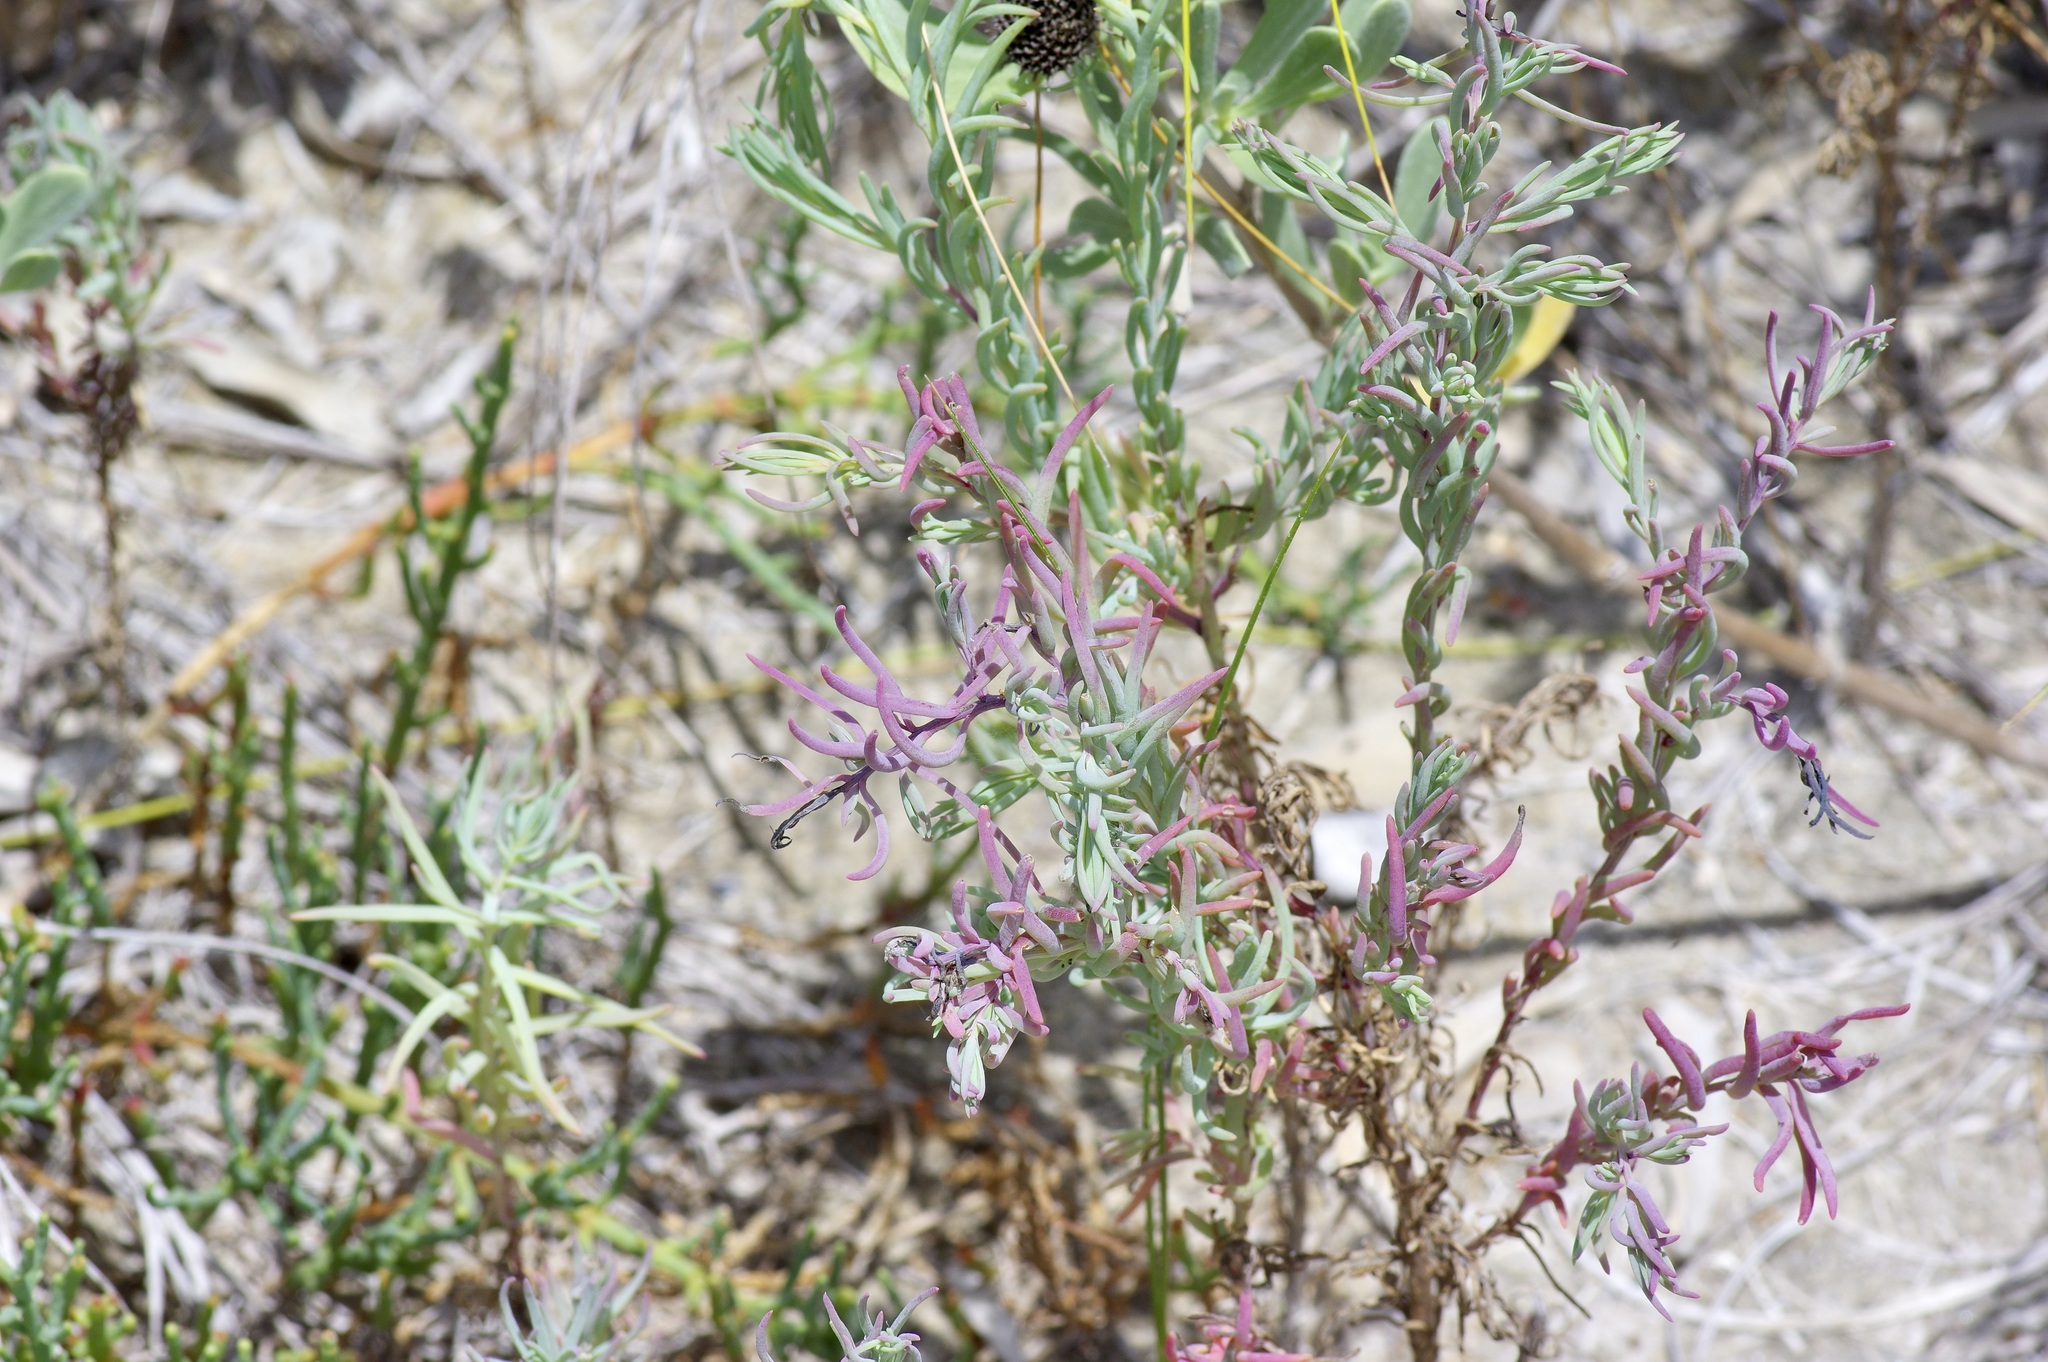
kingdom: Plantae
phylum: Tracheophyta
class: Magnoliopsida
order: Caryophyllales
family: Amaranthaceae
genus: Suaeda
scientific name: Suaeda linearis
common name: Annual seepweed
